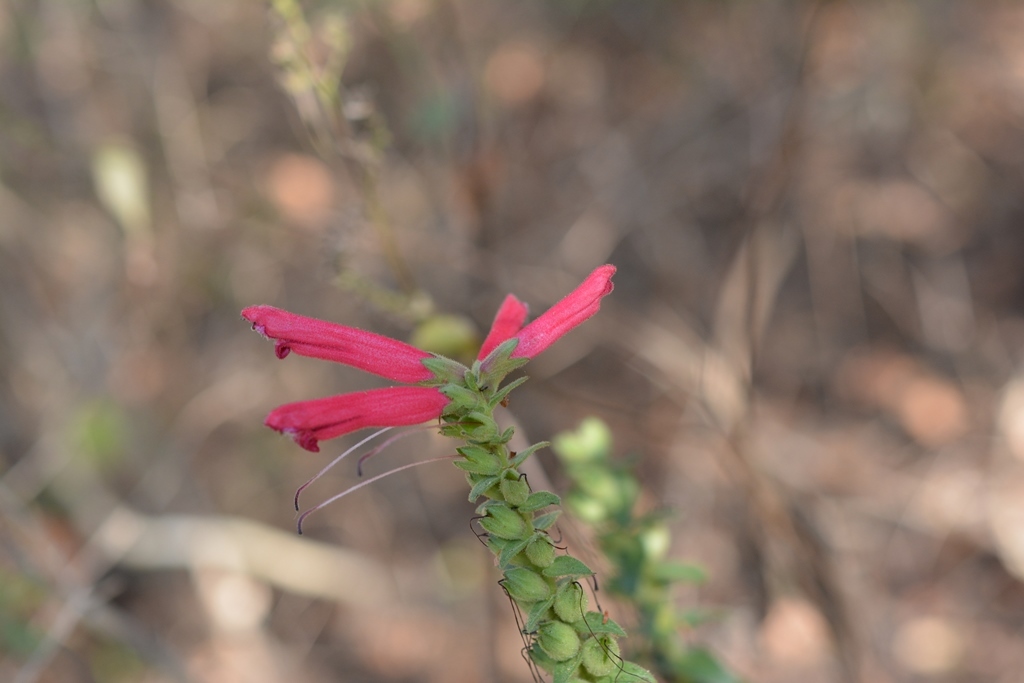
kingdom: Plantae
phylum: Tracheophyta
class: Magnoliopsida
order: Lamiales
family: Orobanchaceae
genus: Lamourouxia
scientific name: Lamourouxia viscosa
